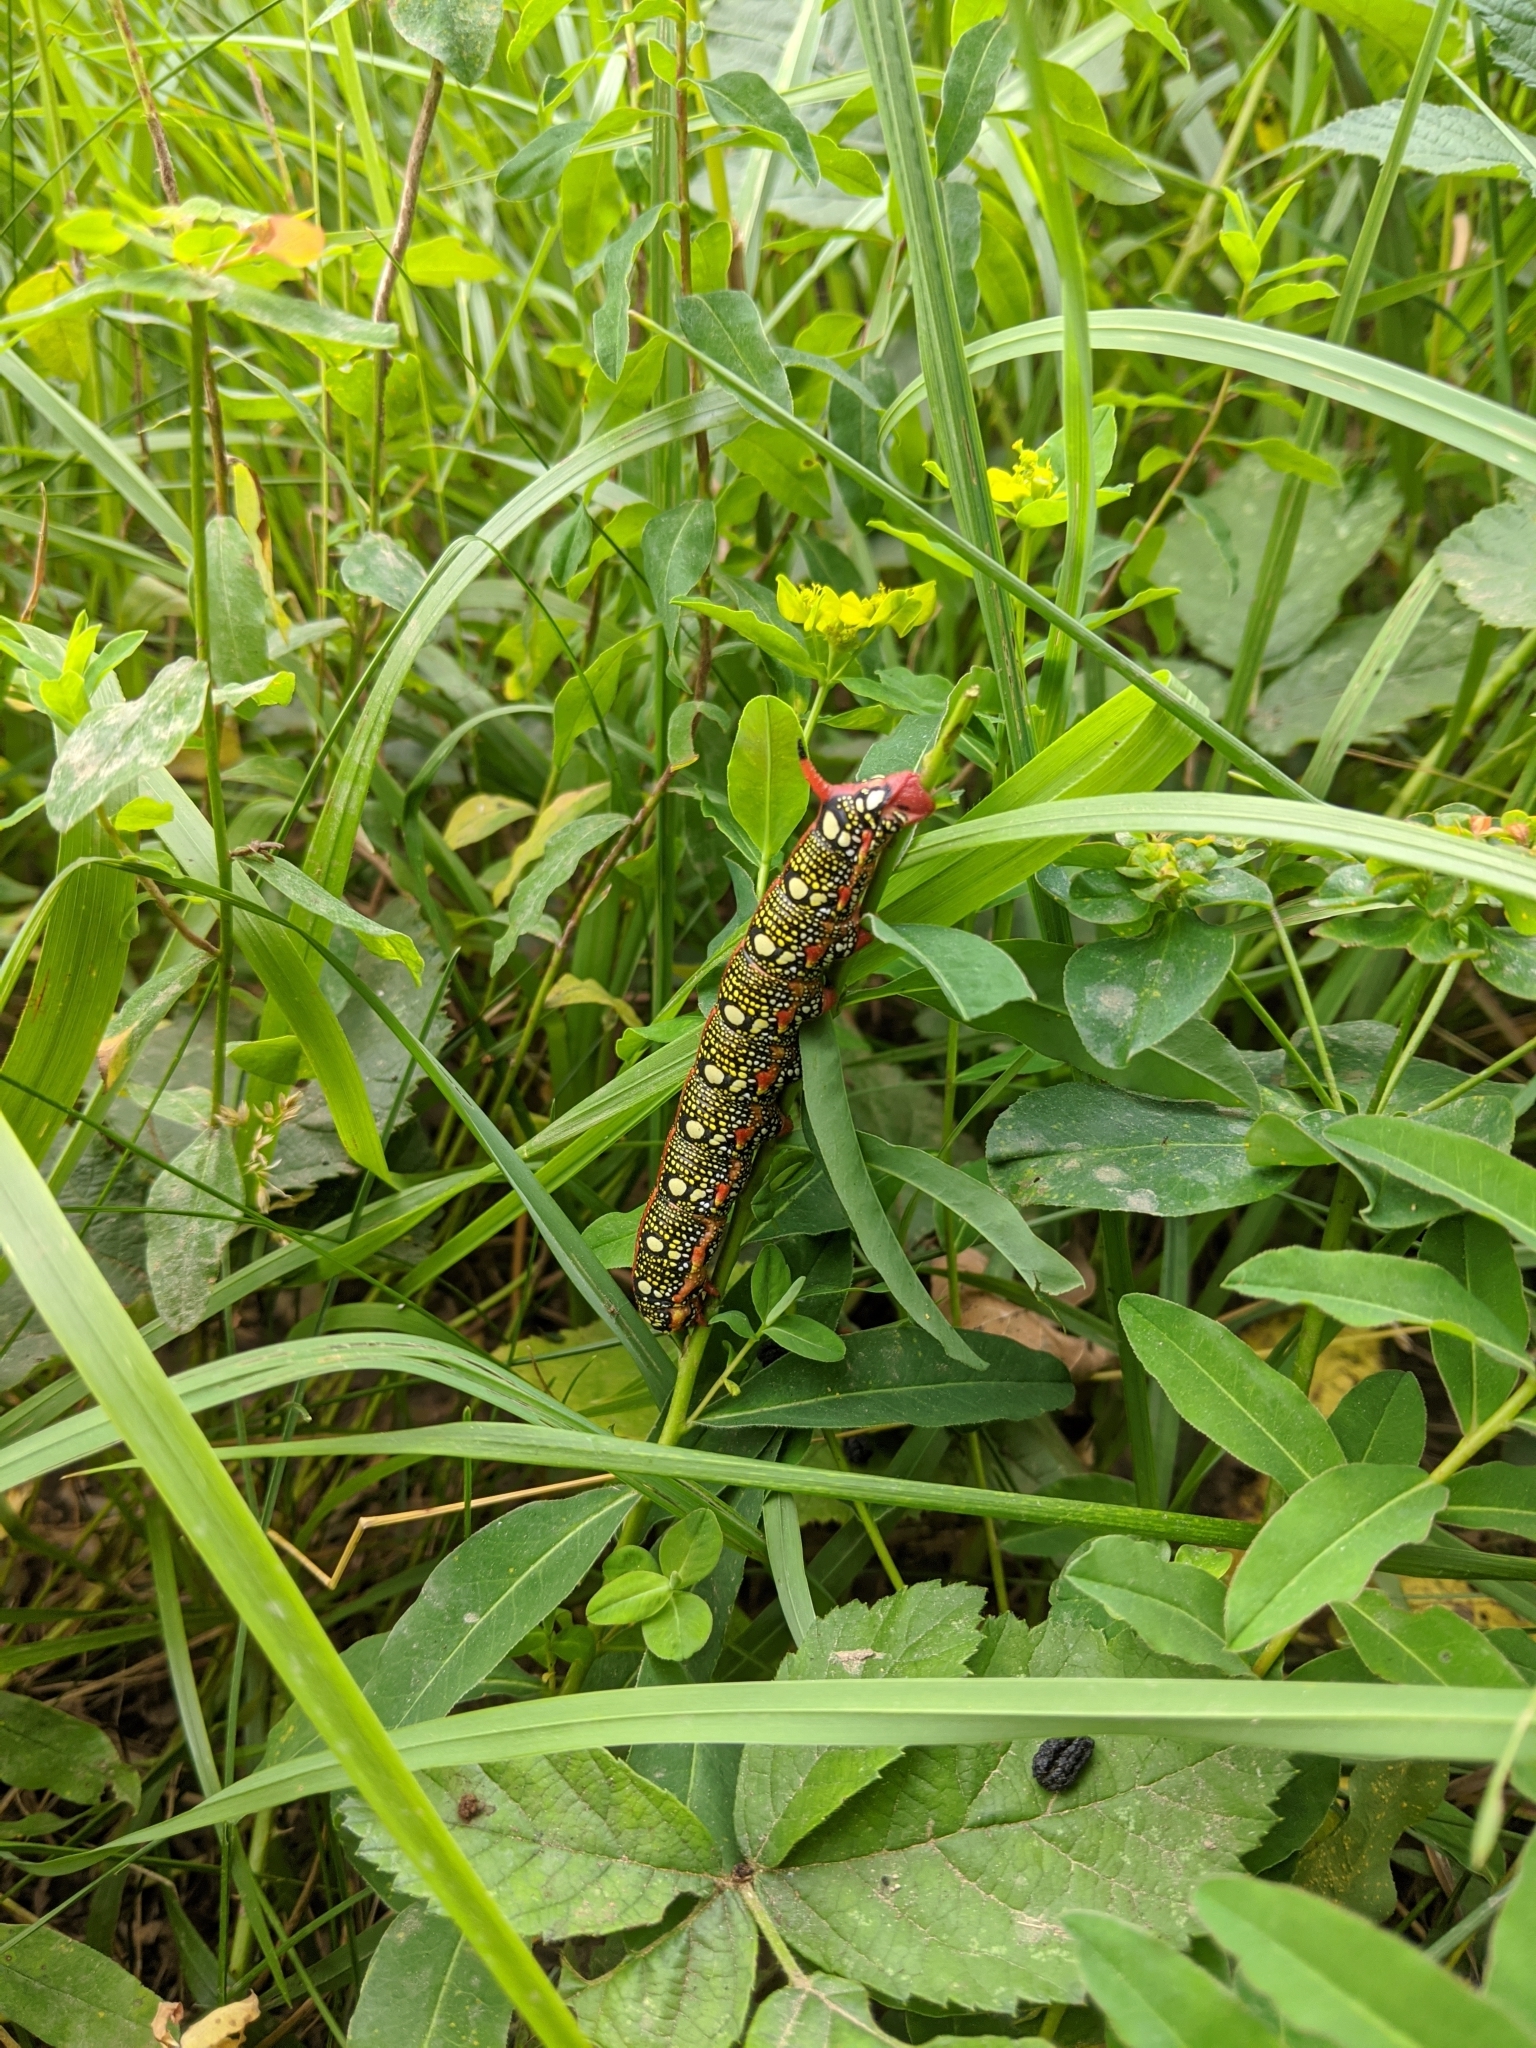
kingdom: Animalia
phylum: Arthropoda
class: Insecta
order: Lepidoptera
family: Sphingidae
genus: Hyles
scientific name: Hyles euphorbiae
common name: Spurge hawk-moth
